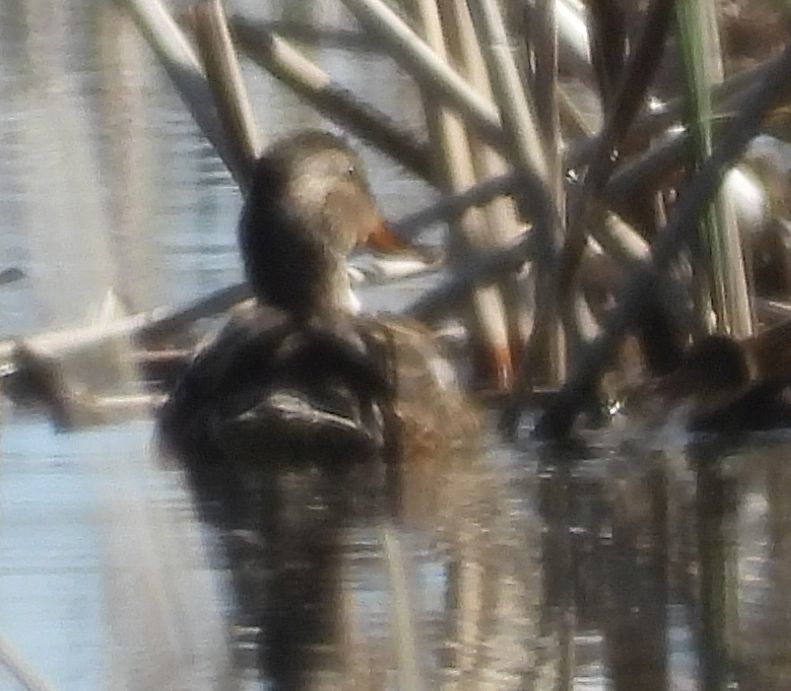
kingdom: Animalia
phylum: Chordata
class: Aves
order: Anseriformes
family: Anatidae
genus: Anas
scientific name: Anas platyrhynchos
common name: Mallard
